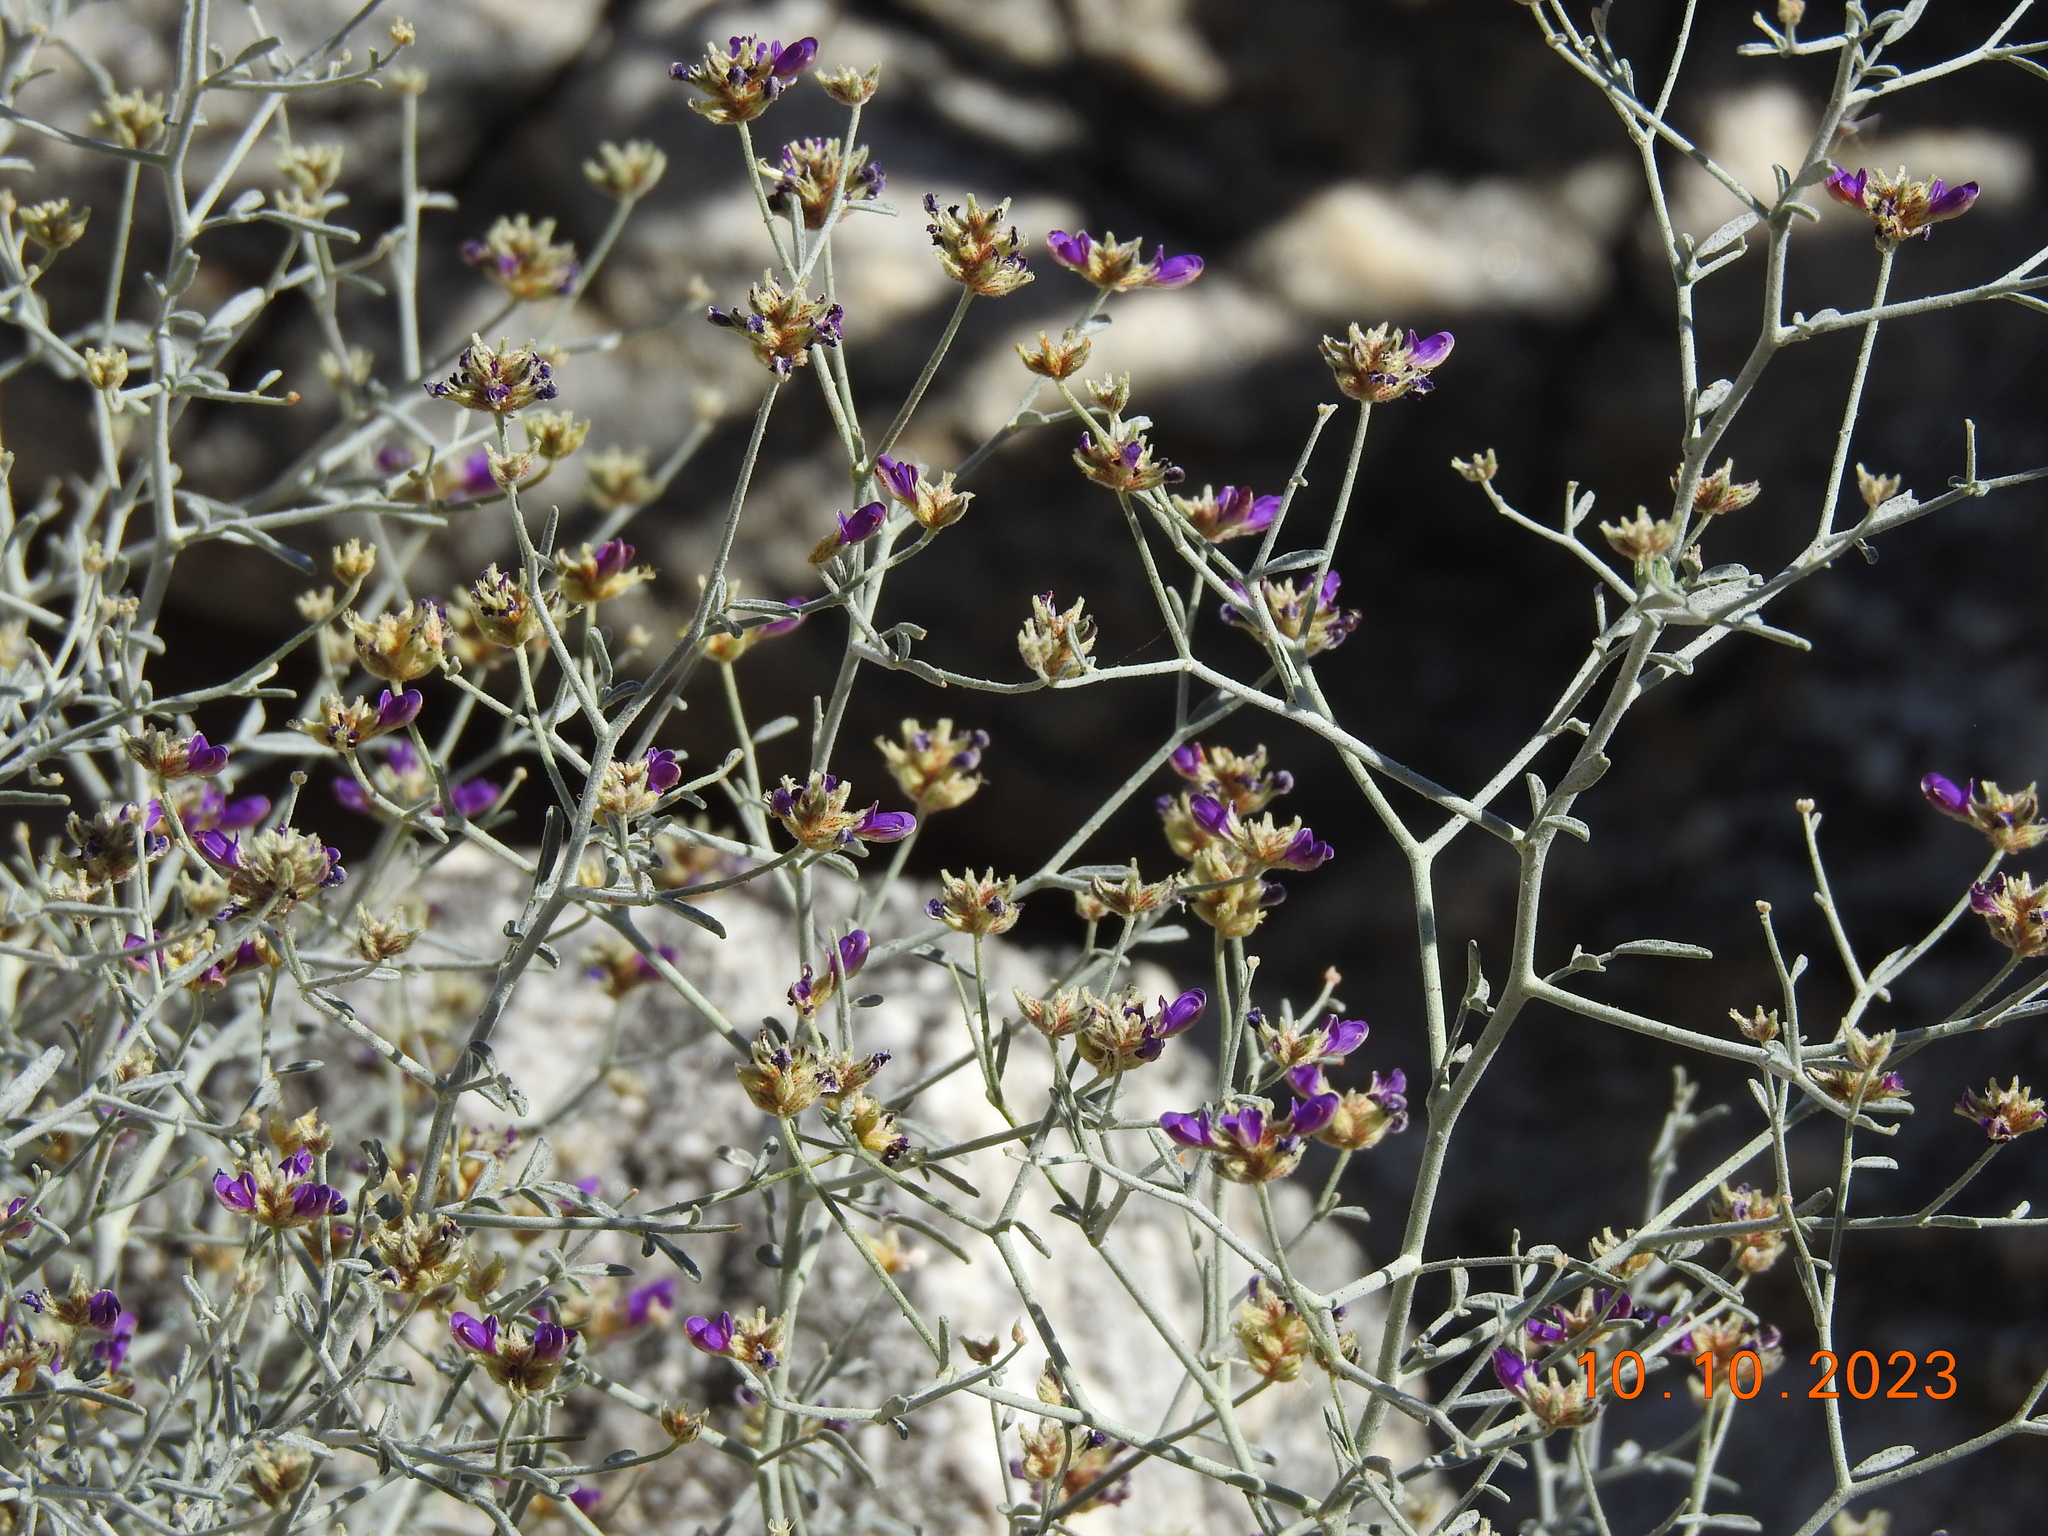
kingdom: Plantae
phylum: Tracheophyta
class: Magnoliopsida
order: Fabales
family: Fabaceae
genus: Psorothamnus
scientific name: Psorothamnus emoryi
